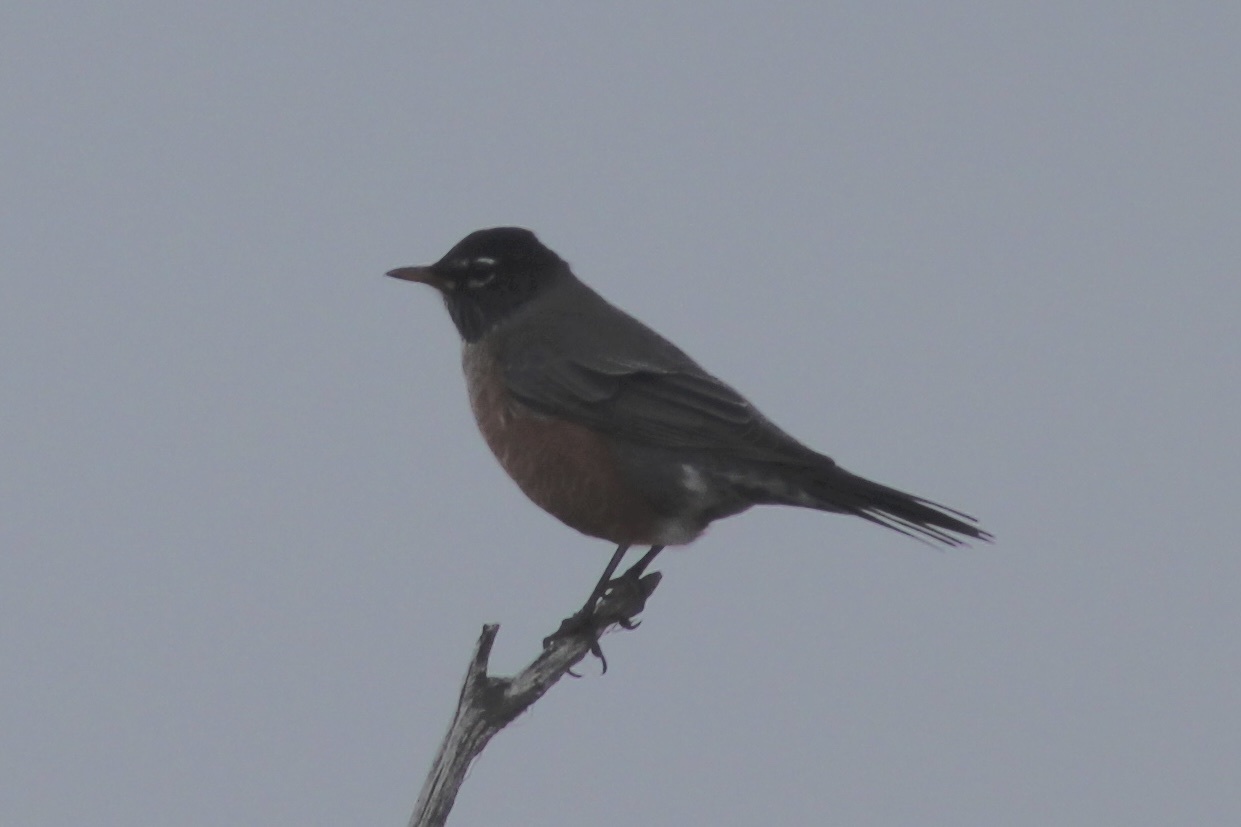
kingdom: Animalia
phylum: Chordata
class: Aves
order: Passeriformes
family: Turdidae
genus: Turdus
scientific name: Turdus migratorius
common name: American robin
